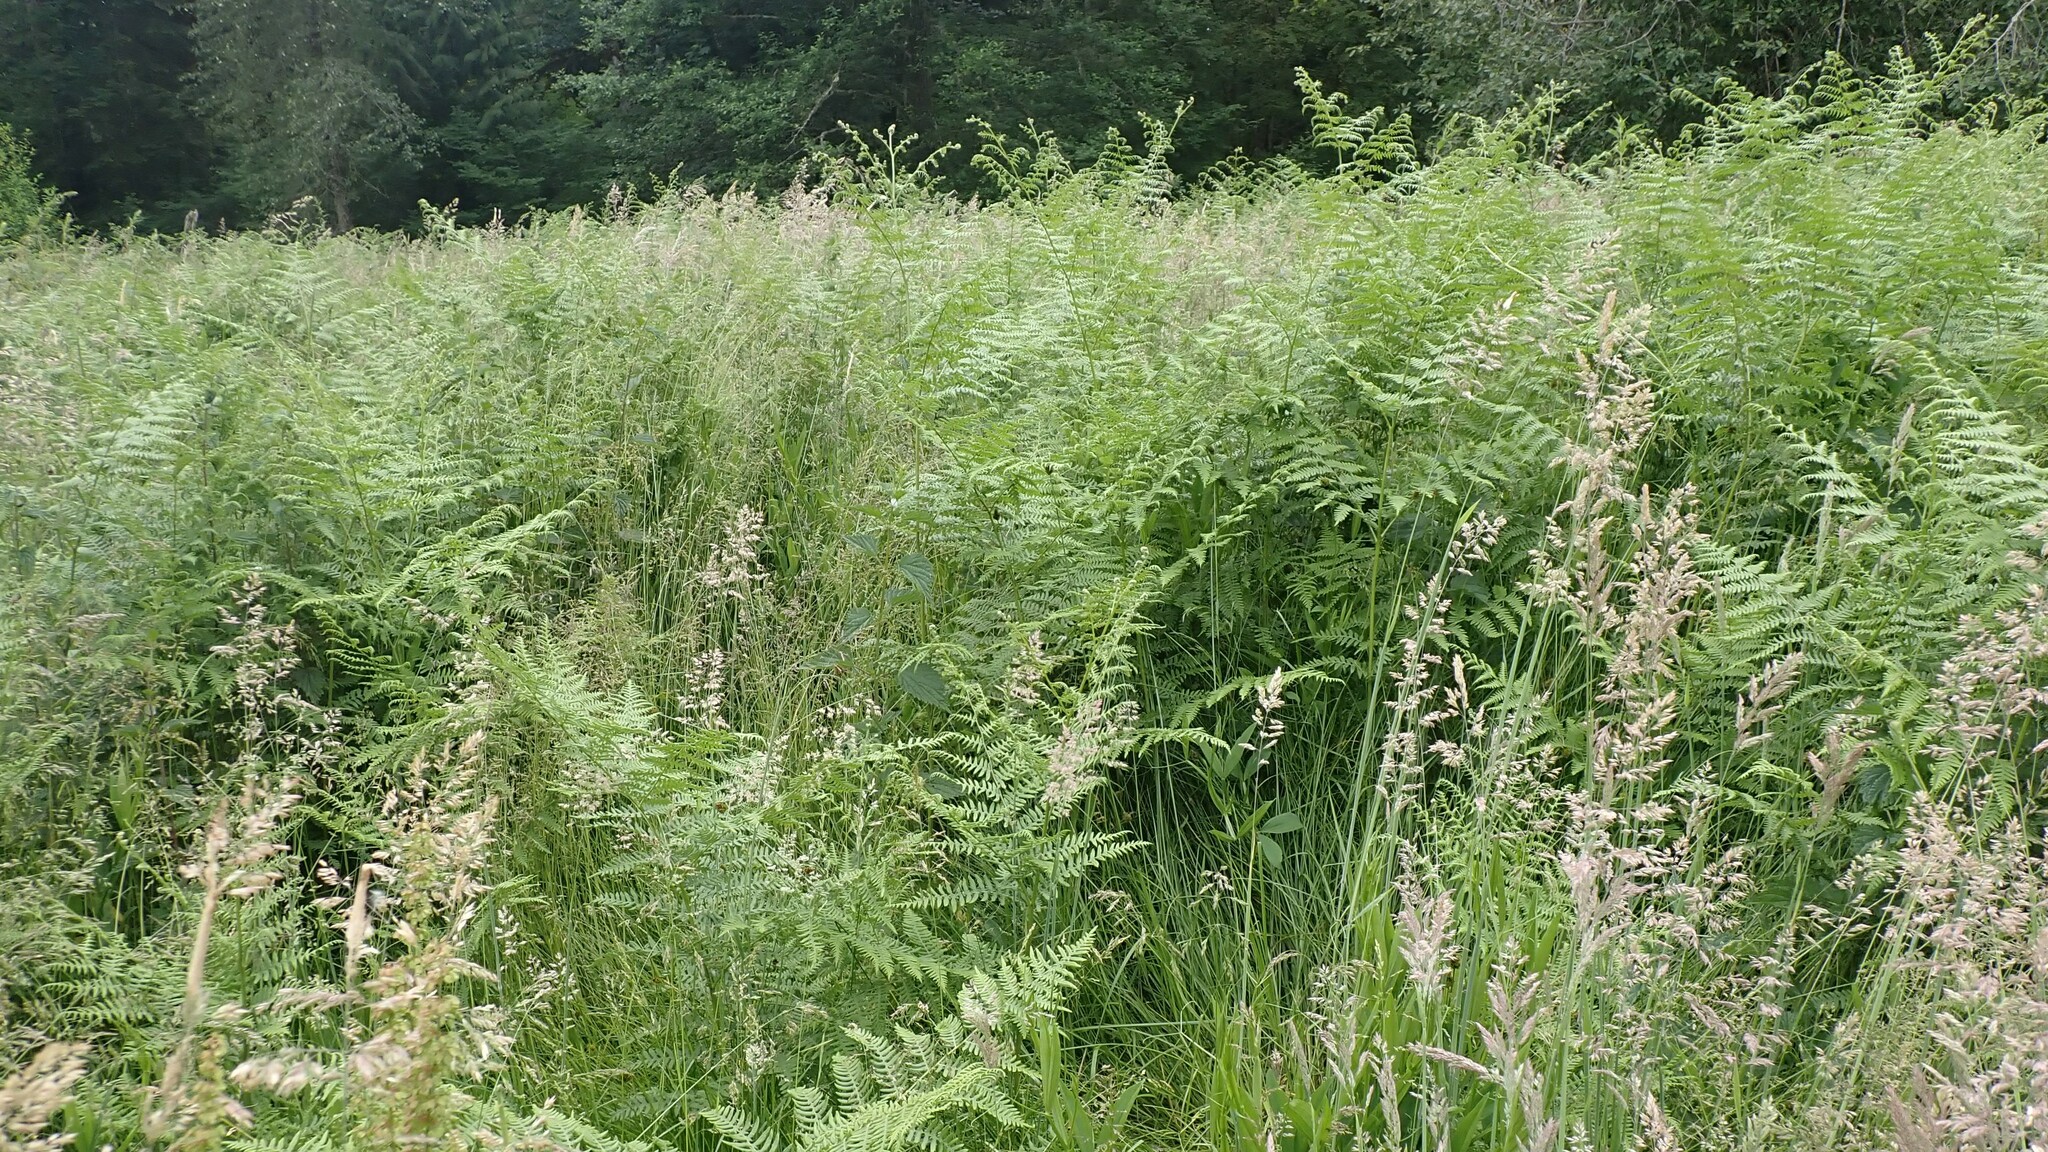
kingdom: Plantae
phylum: Tracheophyta
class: Polypodiopsida
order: Polypodiales
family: Dennstaedtiaceae
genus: Pteridium
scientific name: Pteridium aquilinum
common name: Bracken
